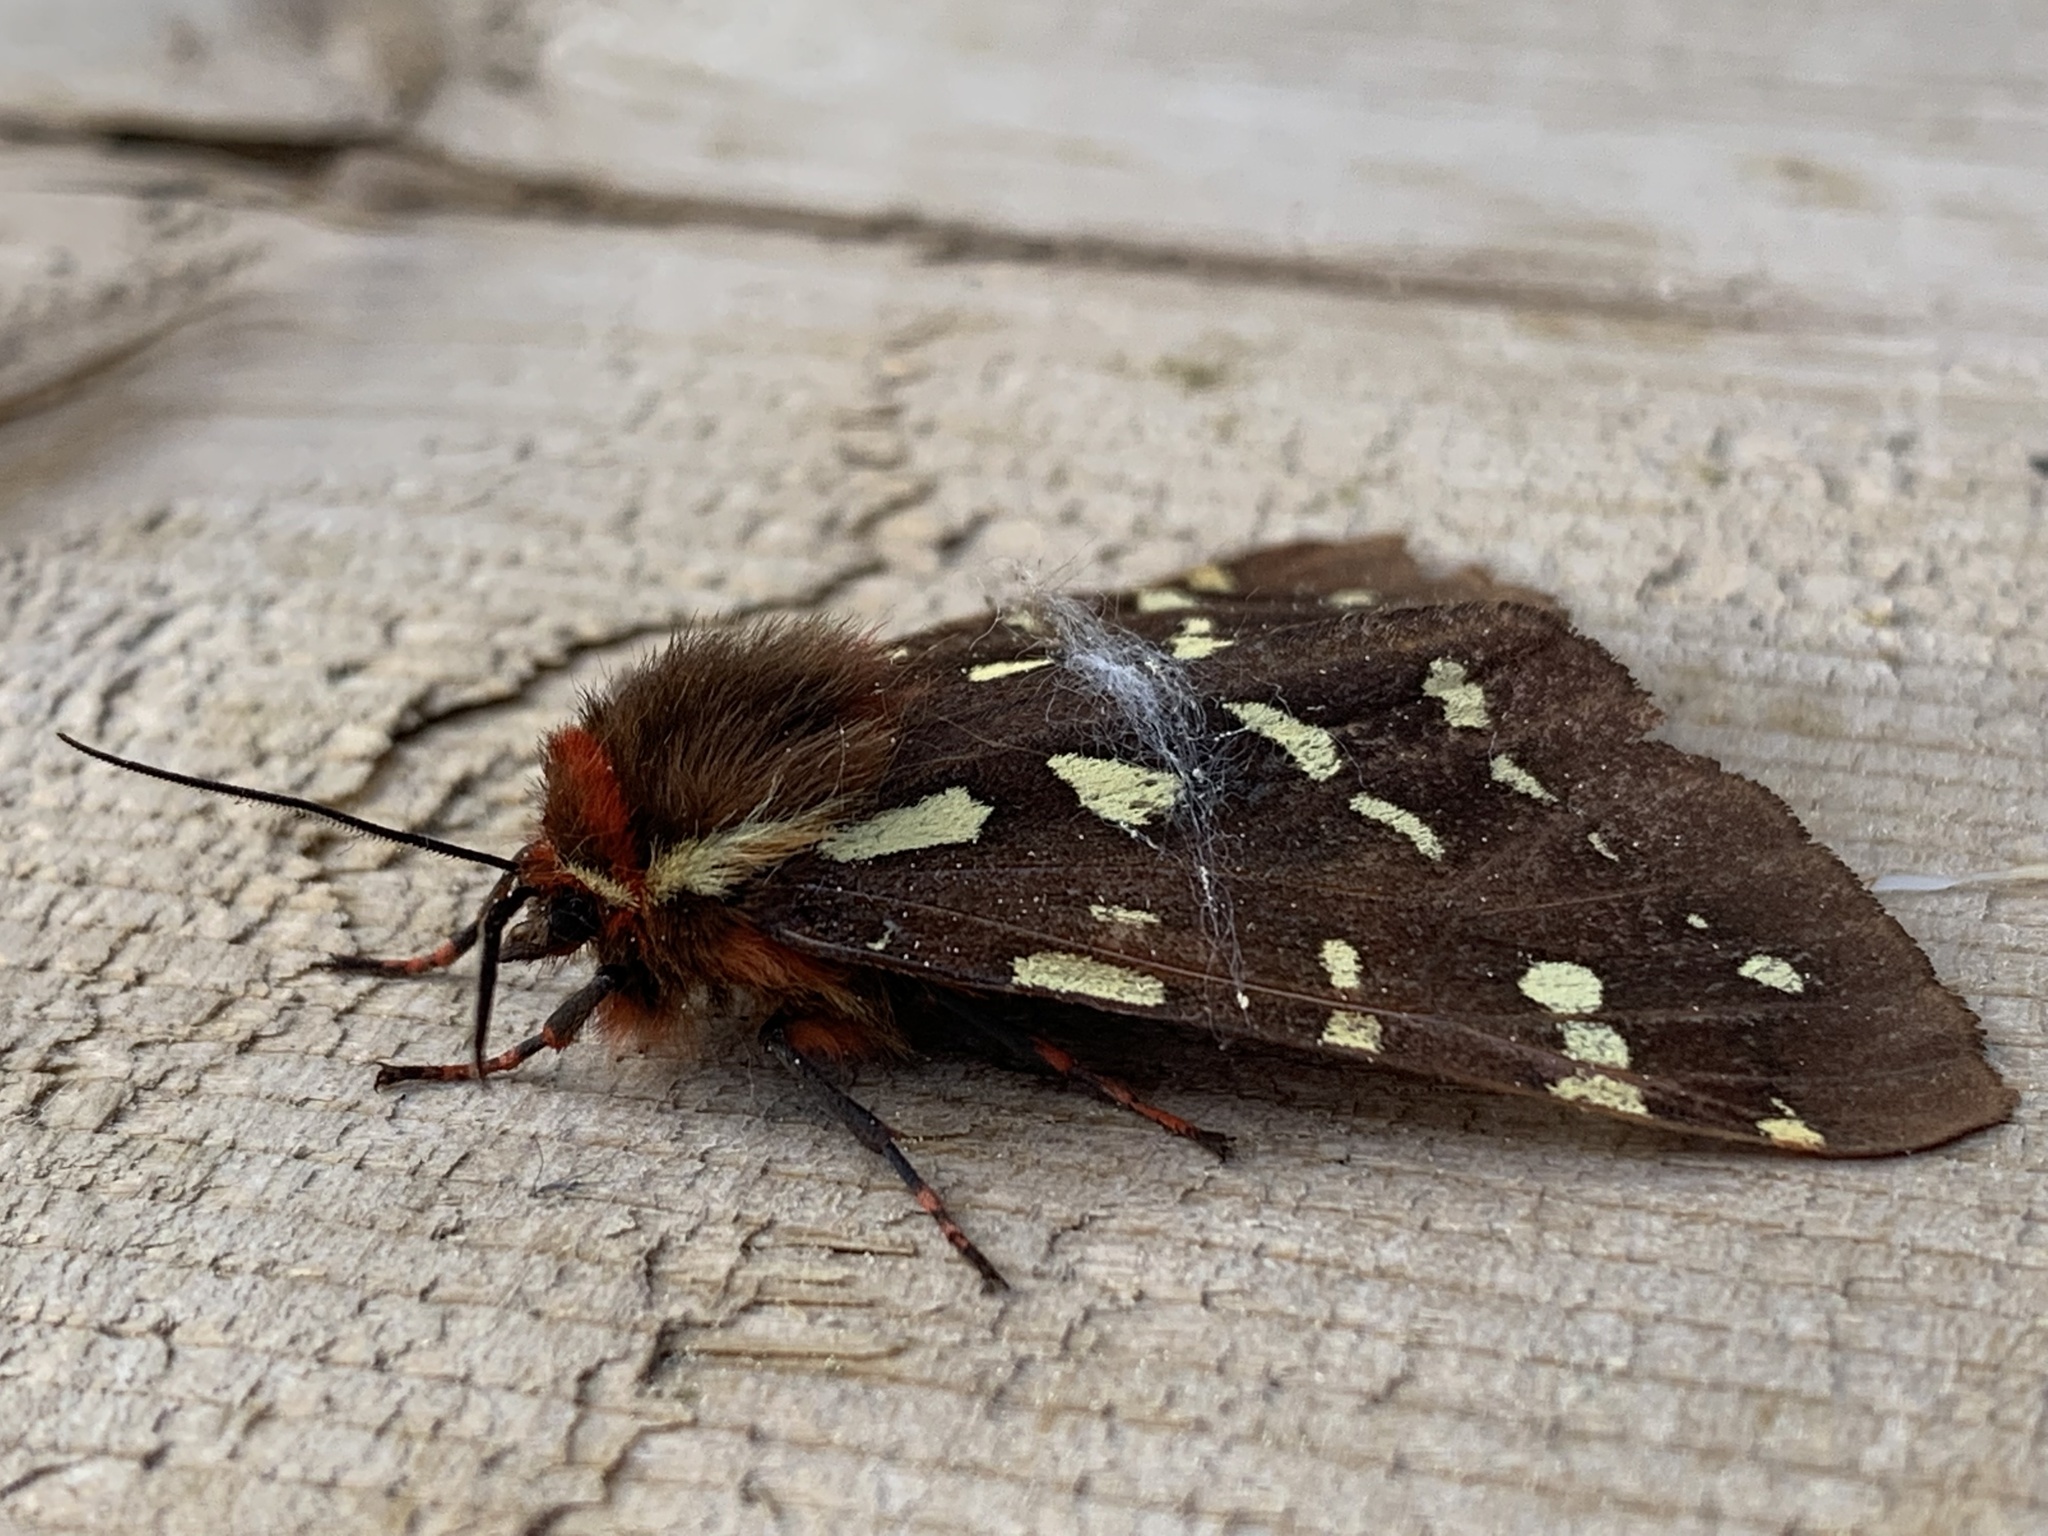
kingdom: Animalia
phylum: Arthropoda
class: Insecta
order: Lepidoptera
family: Erebidae
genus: Arctia
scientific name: Arctia parthenos
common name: St. lawrence tiger moth
